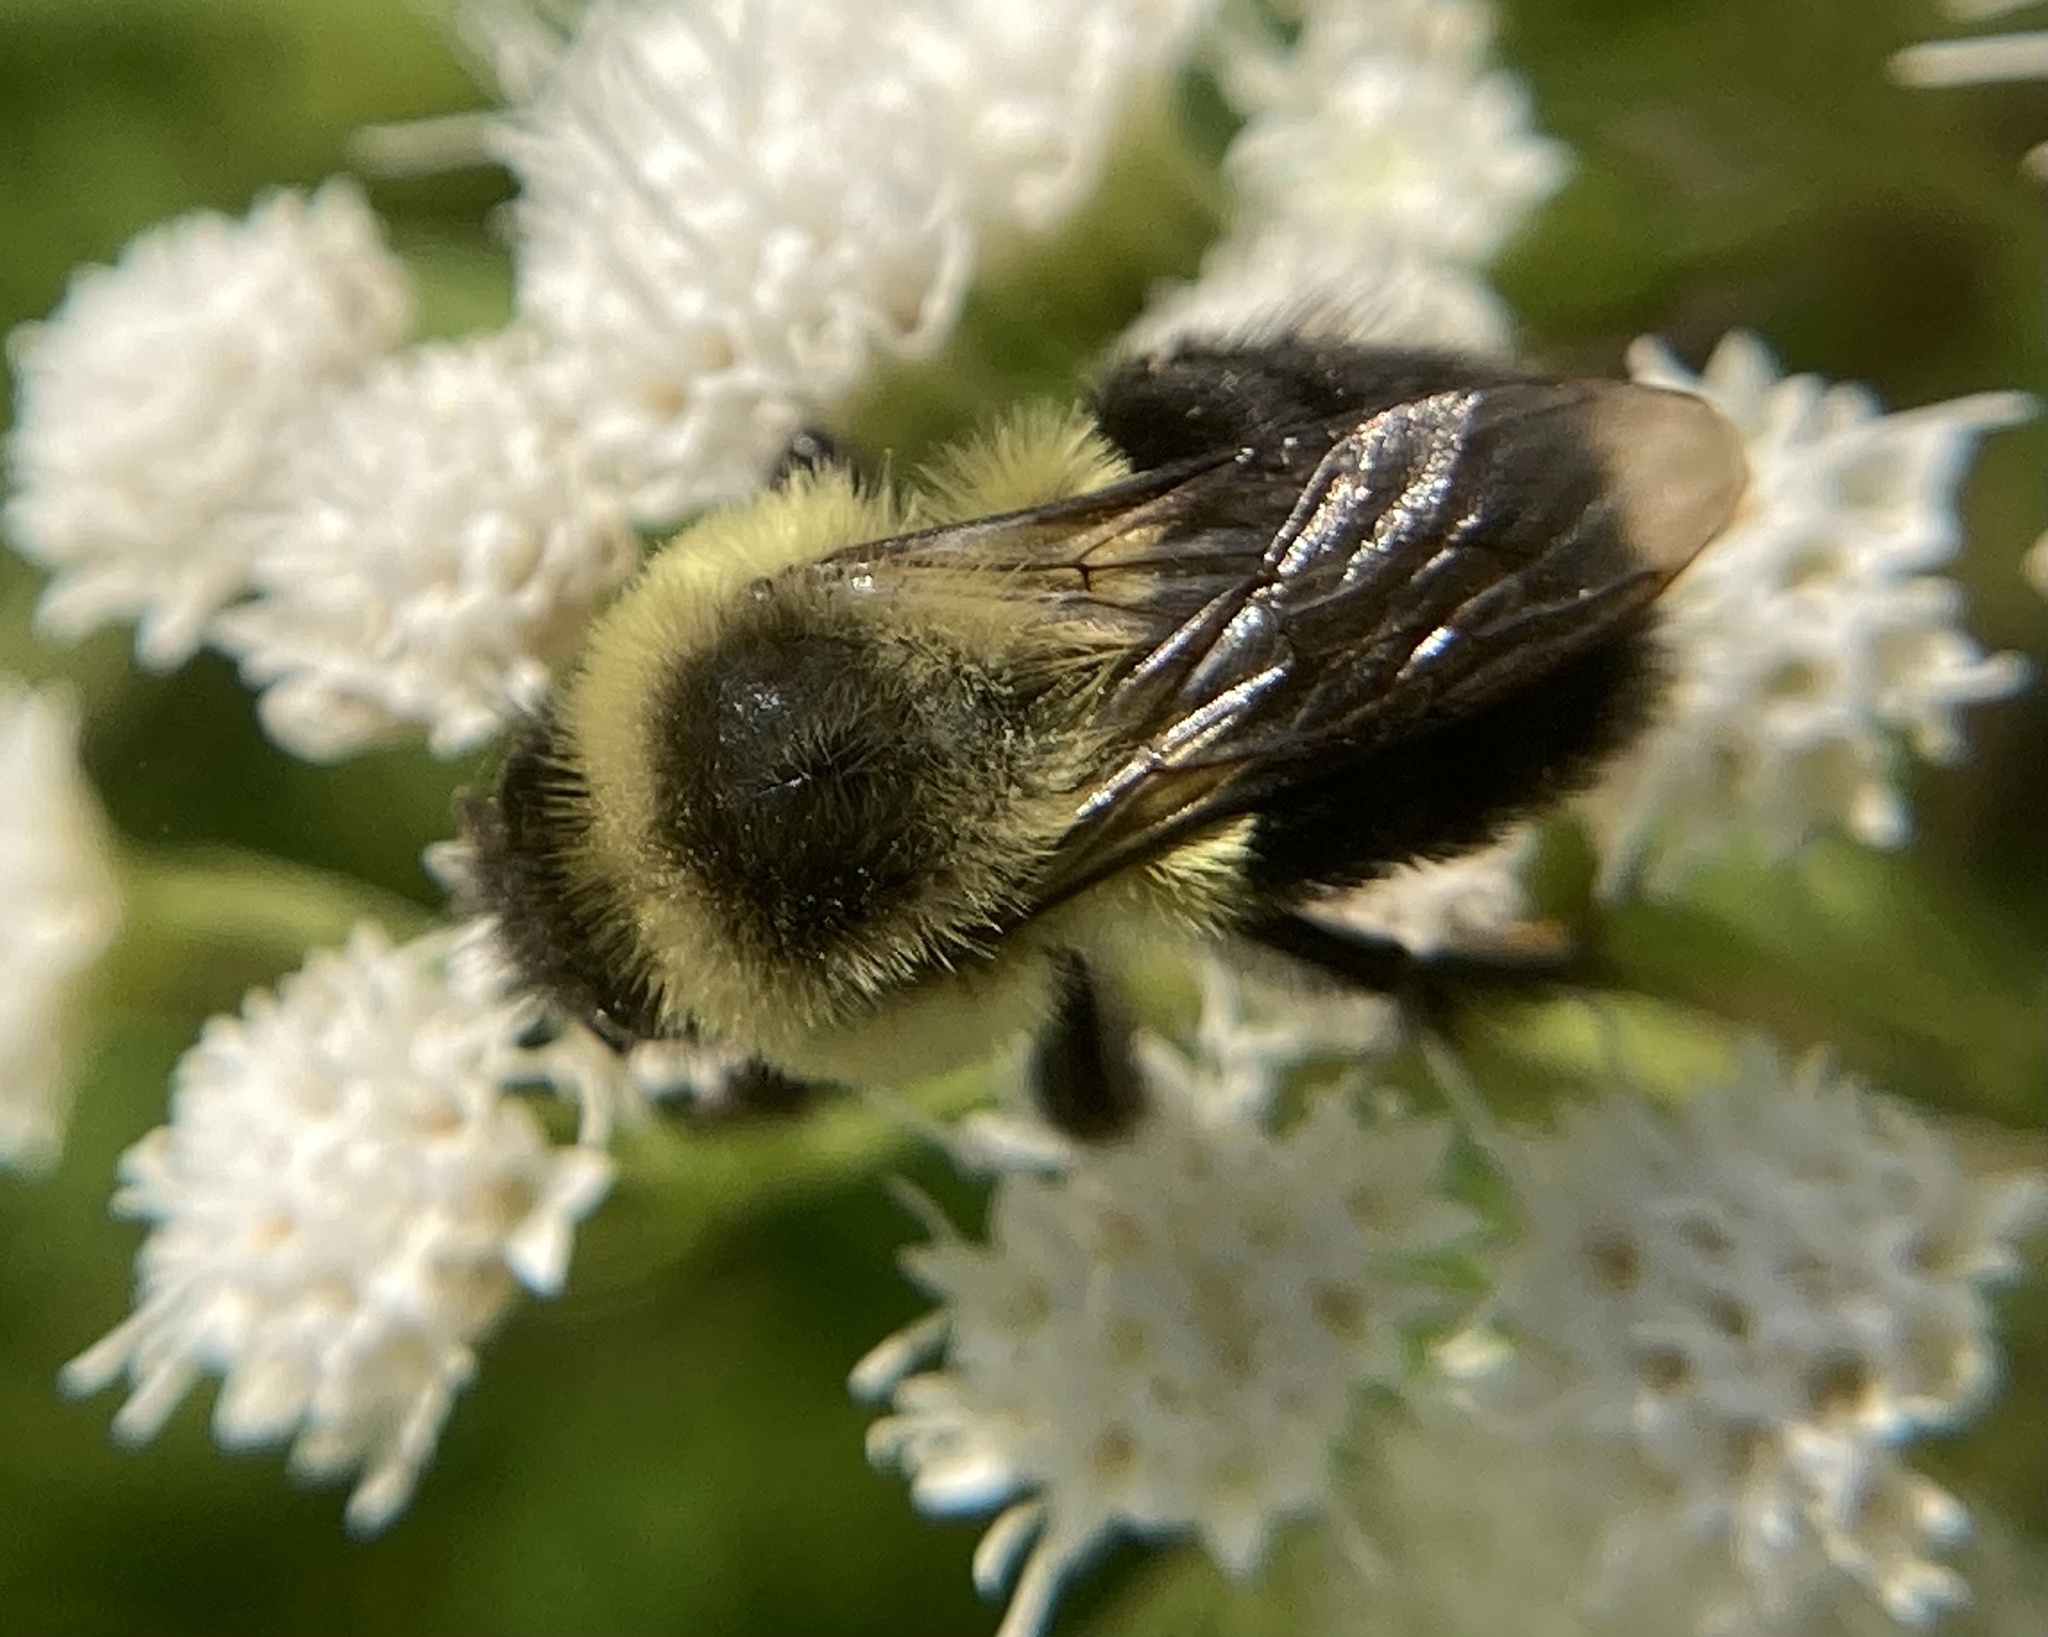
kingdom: Animalia
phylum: Arthropoda
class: Insecta
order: Hymenoptera
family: Apidae
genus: Bombus
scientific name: Bombus impatiens
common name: Common eastern bumble bee
